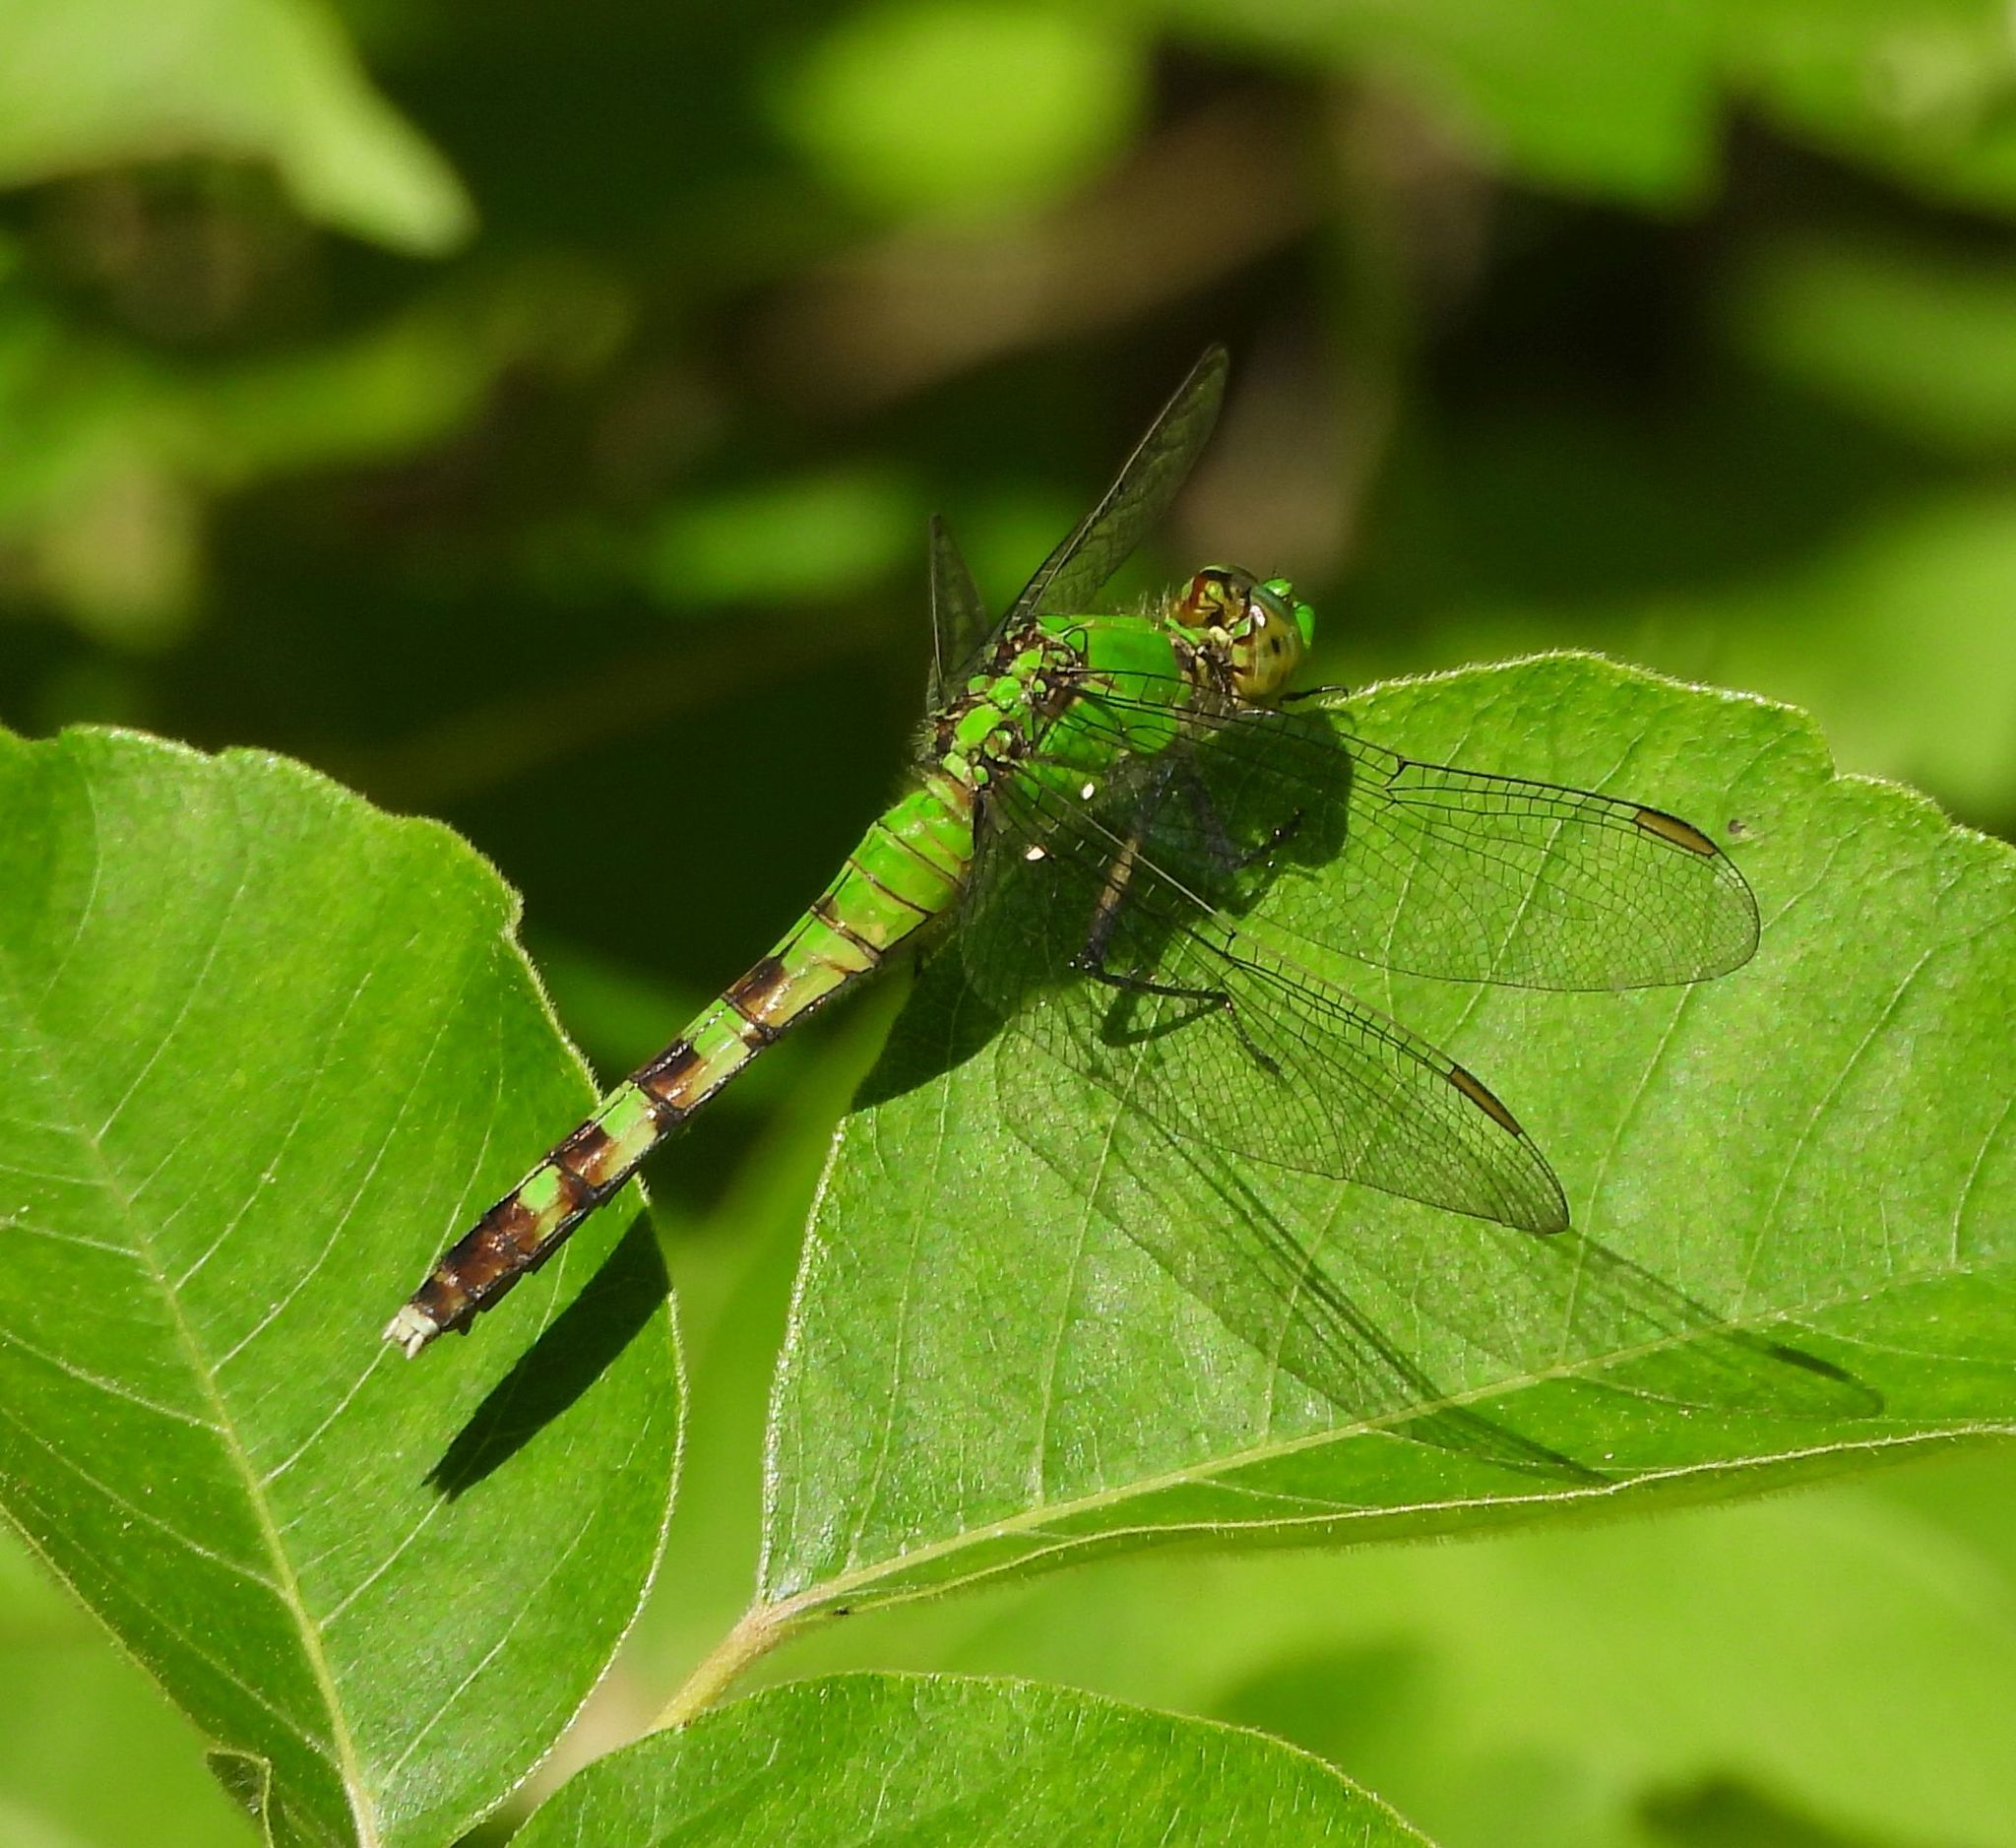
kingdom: Animalia
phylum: Arthropoda
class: Insecta
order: Odonata
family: Libellulidae
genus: Erythemis
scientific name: Erythemis simplicicollis
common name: Eastern pondhawk
